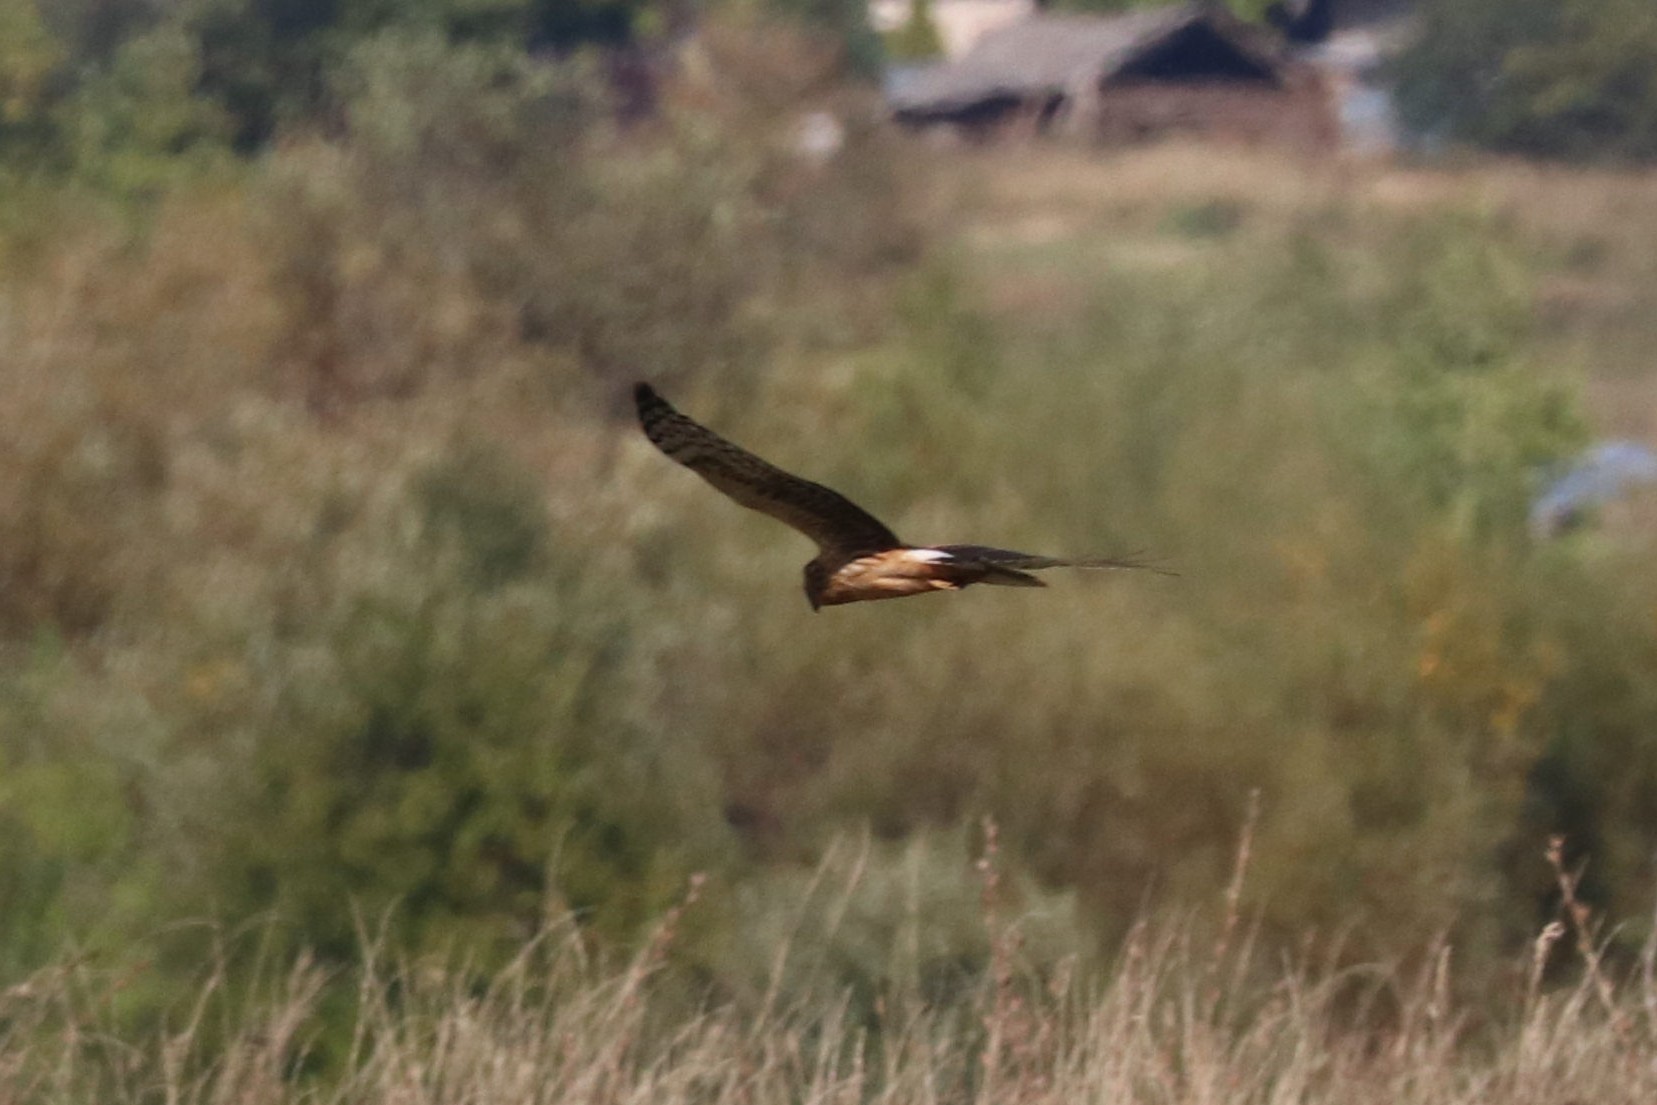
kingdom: Animalia
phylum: Chordata
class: Aves
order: Accipitriformes
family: Accipitridae
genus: Circus
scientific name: Circus cyaneus
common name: Hen harrier
